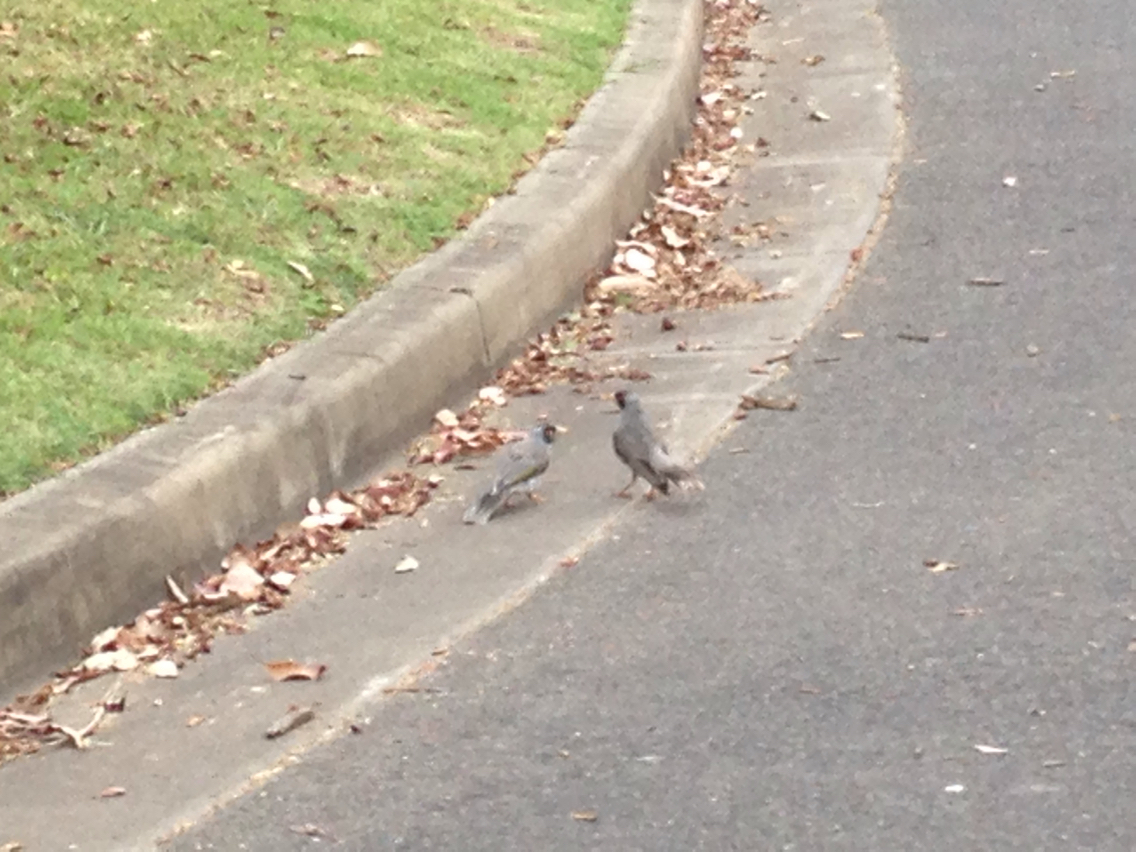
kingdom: Animalia
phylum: Chordata
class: Aves
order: Passeriformes
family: Meliphagidae
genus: Manorina
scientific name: Manorina melanocephala
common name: Noisy miner
